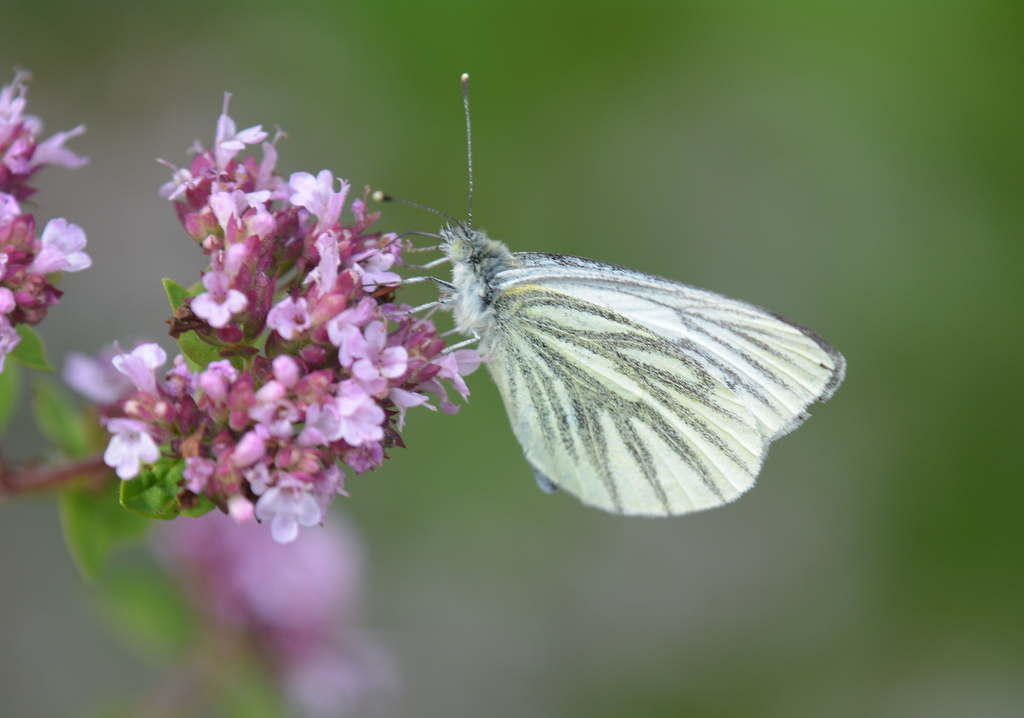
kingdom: Animalia
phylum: Arthropoda
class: Insecta
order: Lepidoptera
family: Pieridae
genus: Pieris
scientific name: Pieris napi
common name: Green-veined white
